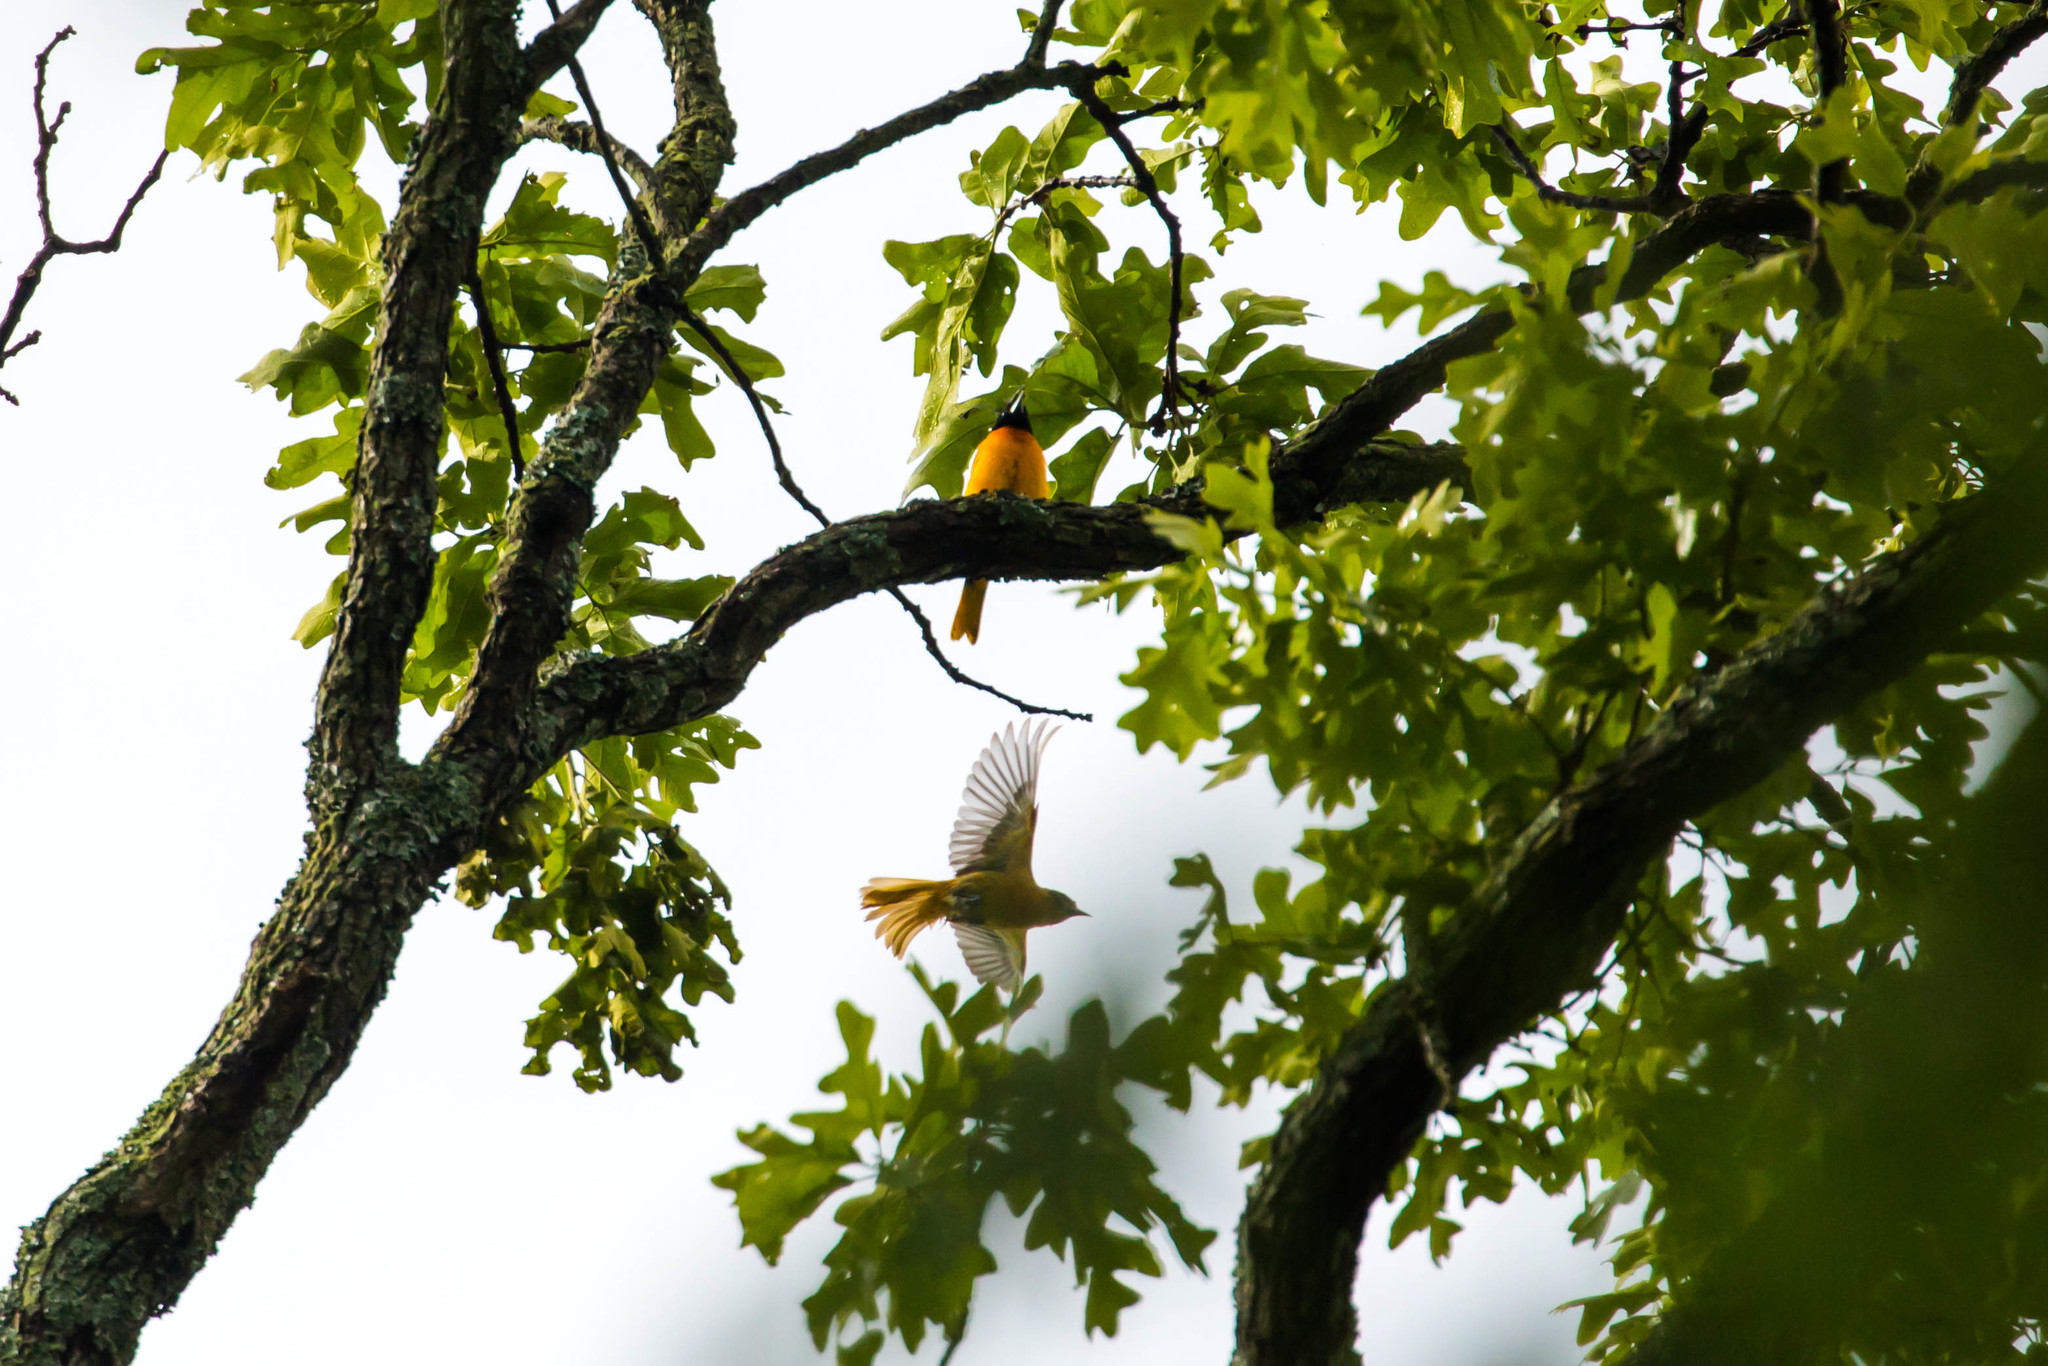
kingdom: Animalia
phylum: Chordata
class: Aves
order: Passeriformes
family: Icteridae
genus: Icterus
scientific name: Icterus galbula
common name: Baltimore oriole
